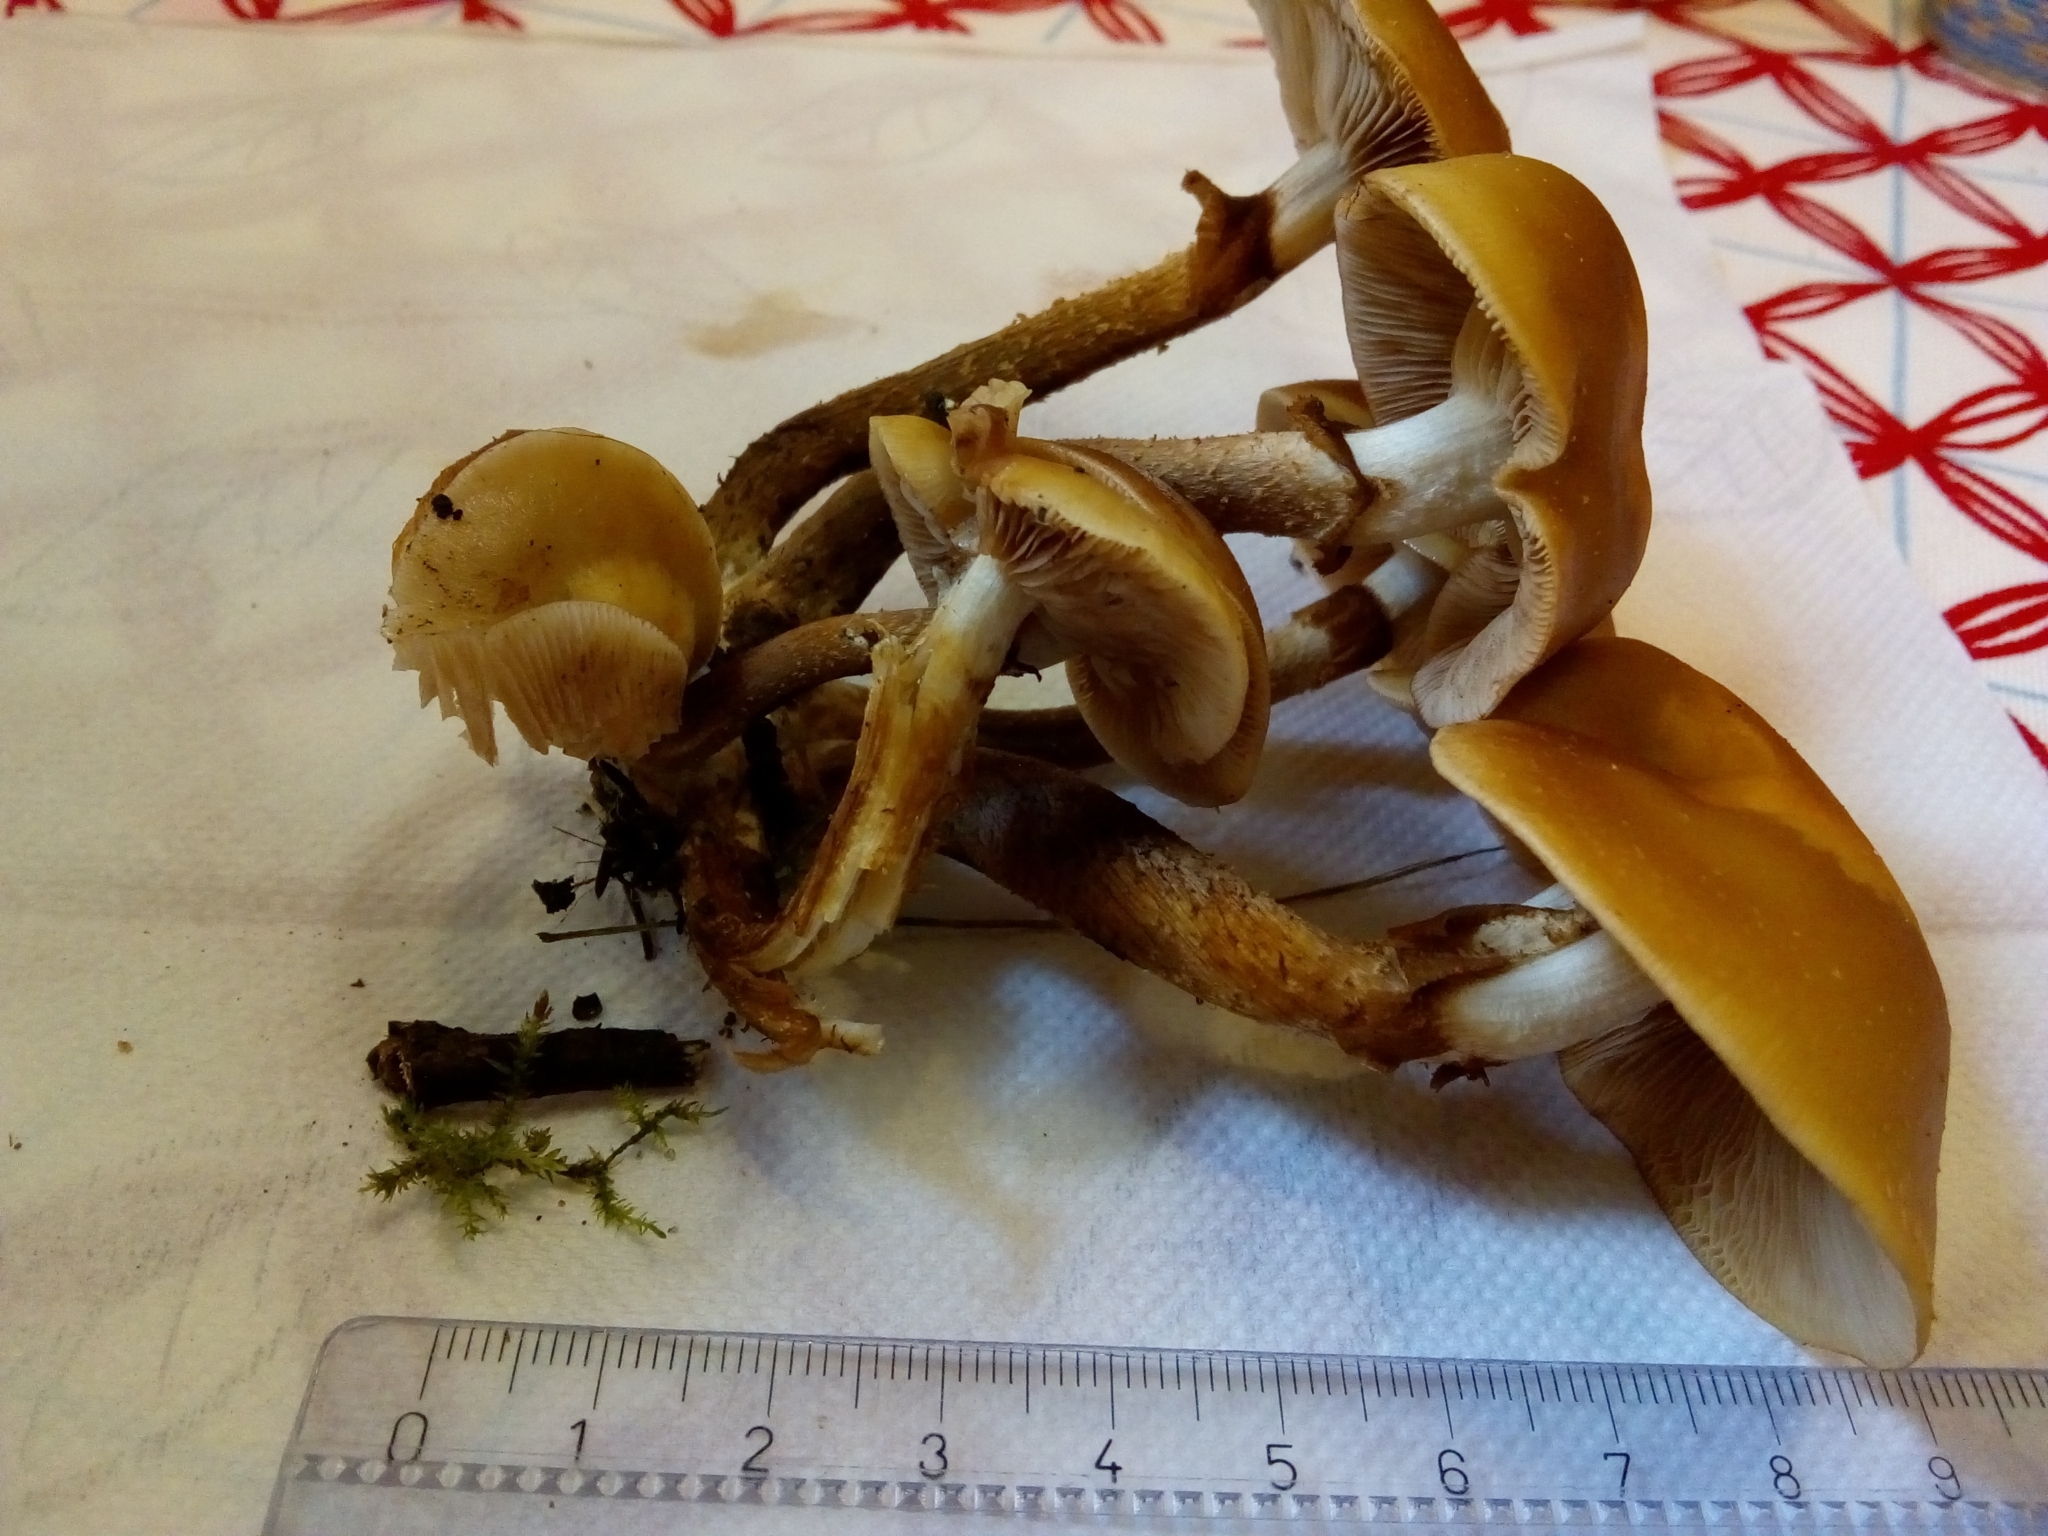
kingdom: Fungi
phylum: Basidiomycota
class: Agaricomycetes
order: Agaricales
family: Strophariaceae
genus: Kuehneromyces
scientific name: Kuehneromyces mutabilis
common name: Sheathed woodtuft
